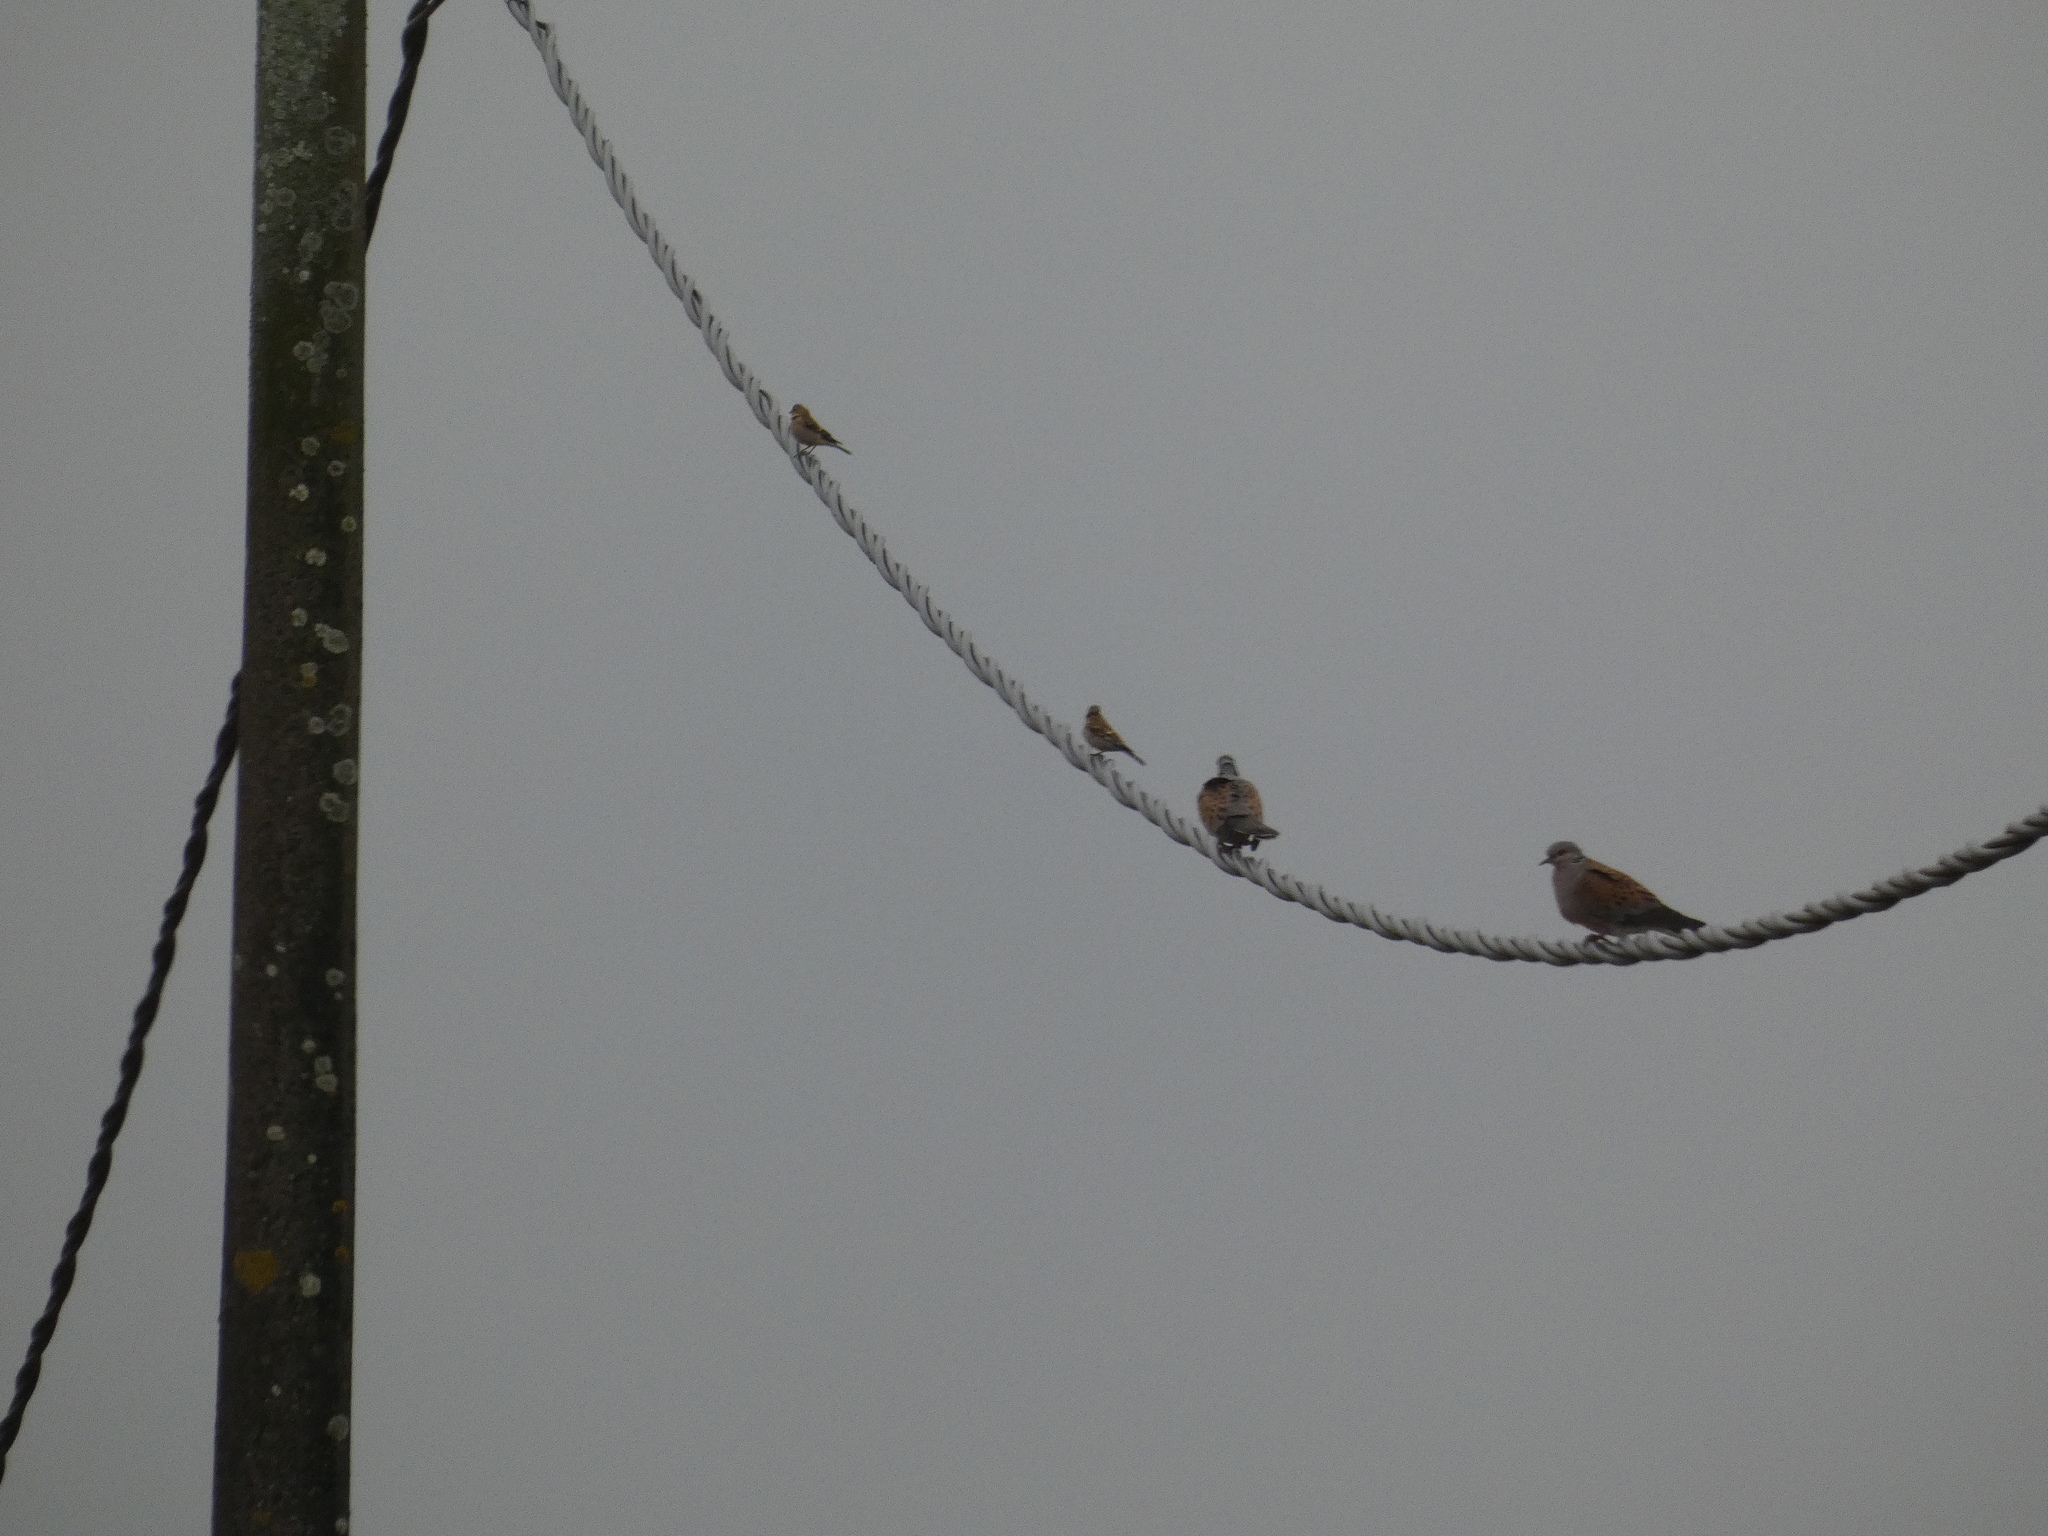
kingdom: Animalia
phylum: Chordata
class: Aves
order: Columbiformes
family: Columbidae
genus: Streptopelia
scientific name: Streptopelia turtur
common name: European turtle dove
